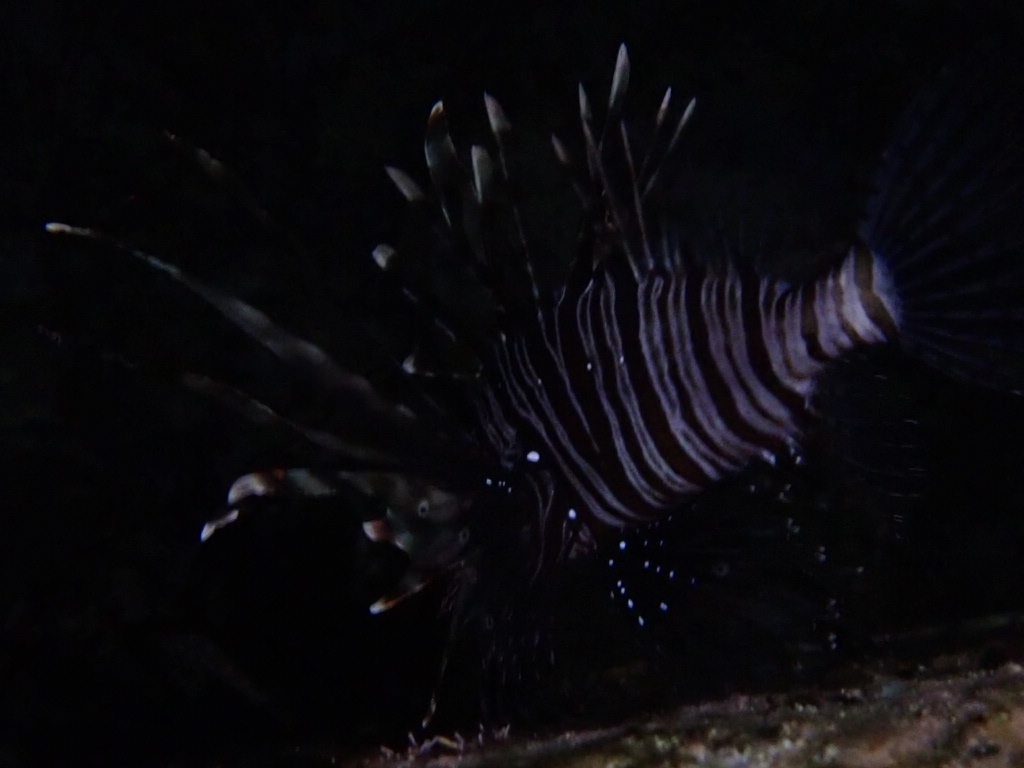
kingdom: Animalia
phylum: Chordata
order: Scorpaeniformes
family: Scorpaenidae
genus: Pterois
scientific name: Pterois miles
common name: Devil firefish
